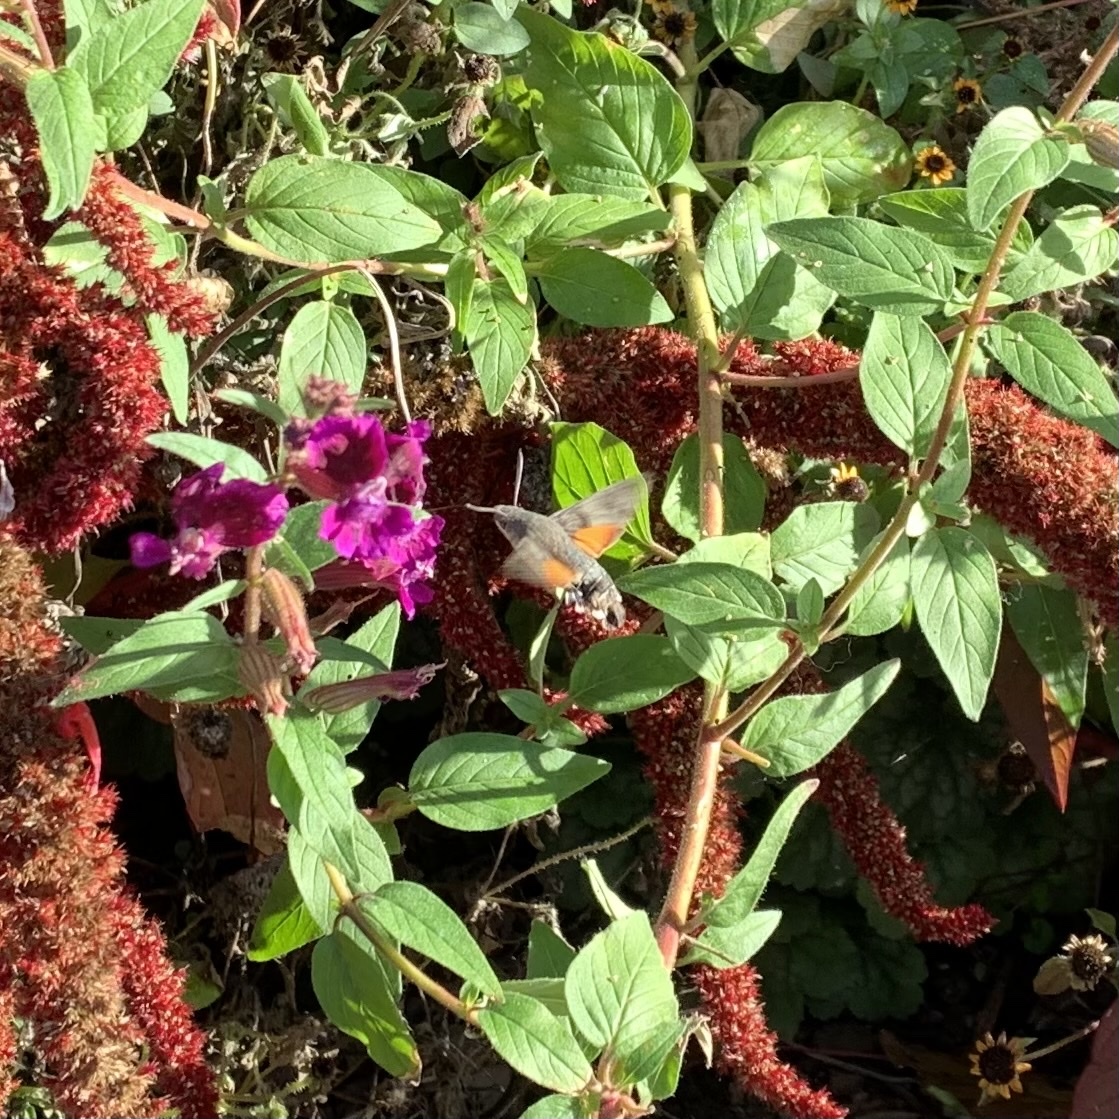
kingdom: Animalia
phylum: Arthropoda
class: Insecta
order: Lepidoptera
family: Sphingidae
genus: Macroglossum
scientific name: Macroglossum stellatarum
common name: Humming-bird hawk-moth
